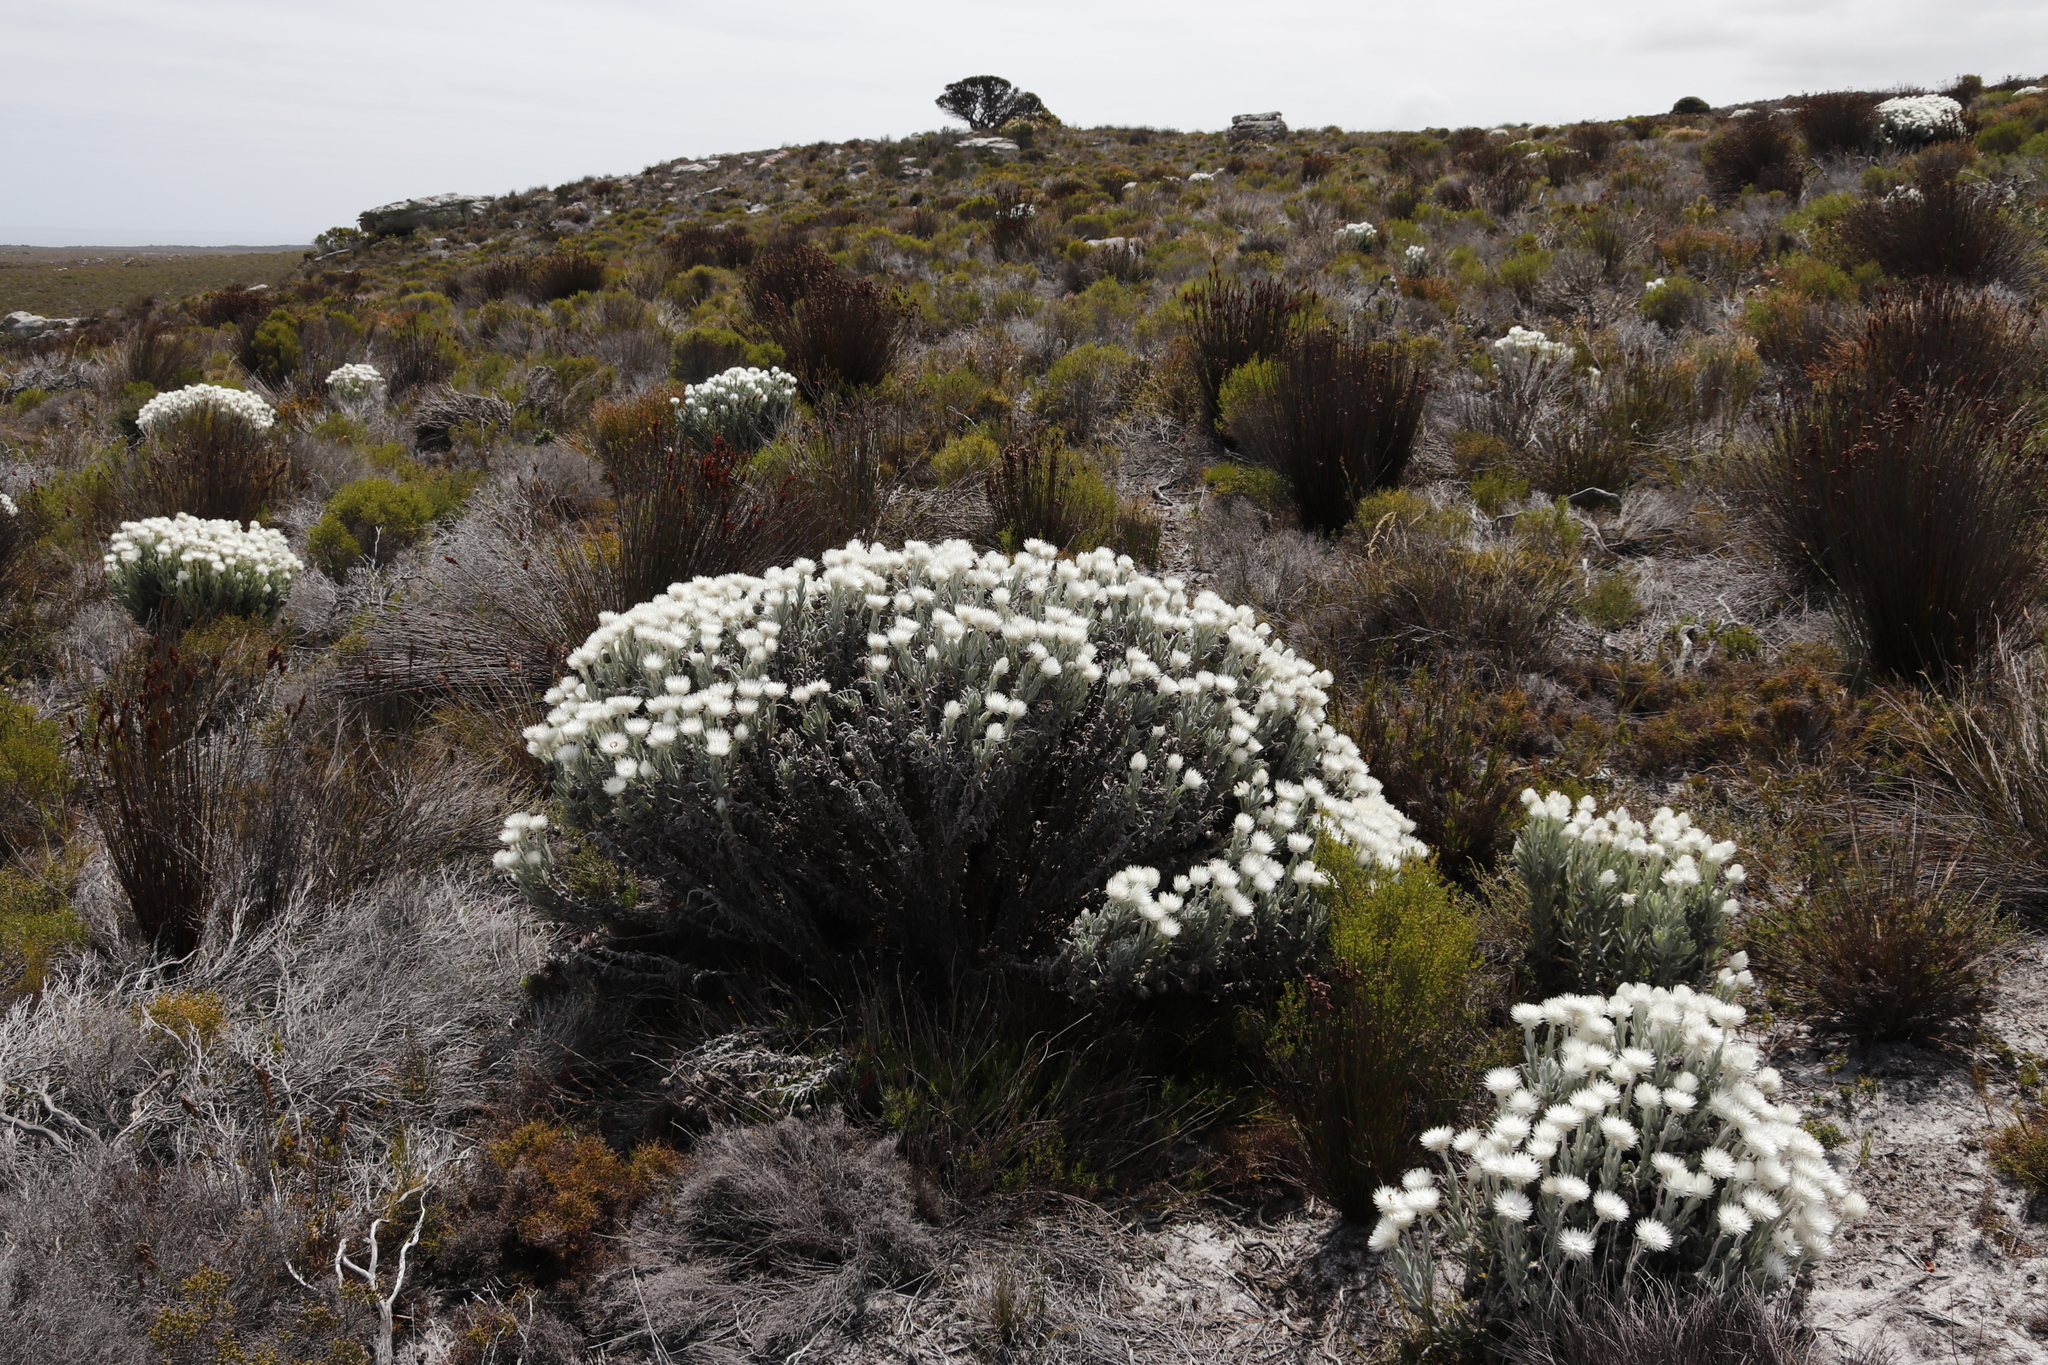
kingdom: Plantae
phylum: Tracheophyta
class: Magnoliopsida
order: Asterales
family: Asteraceae
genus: Syncarpha
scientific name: Syncarpha vestita
